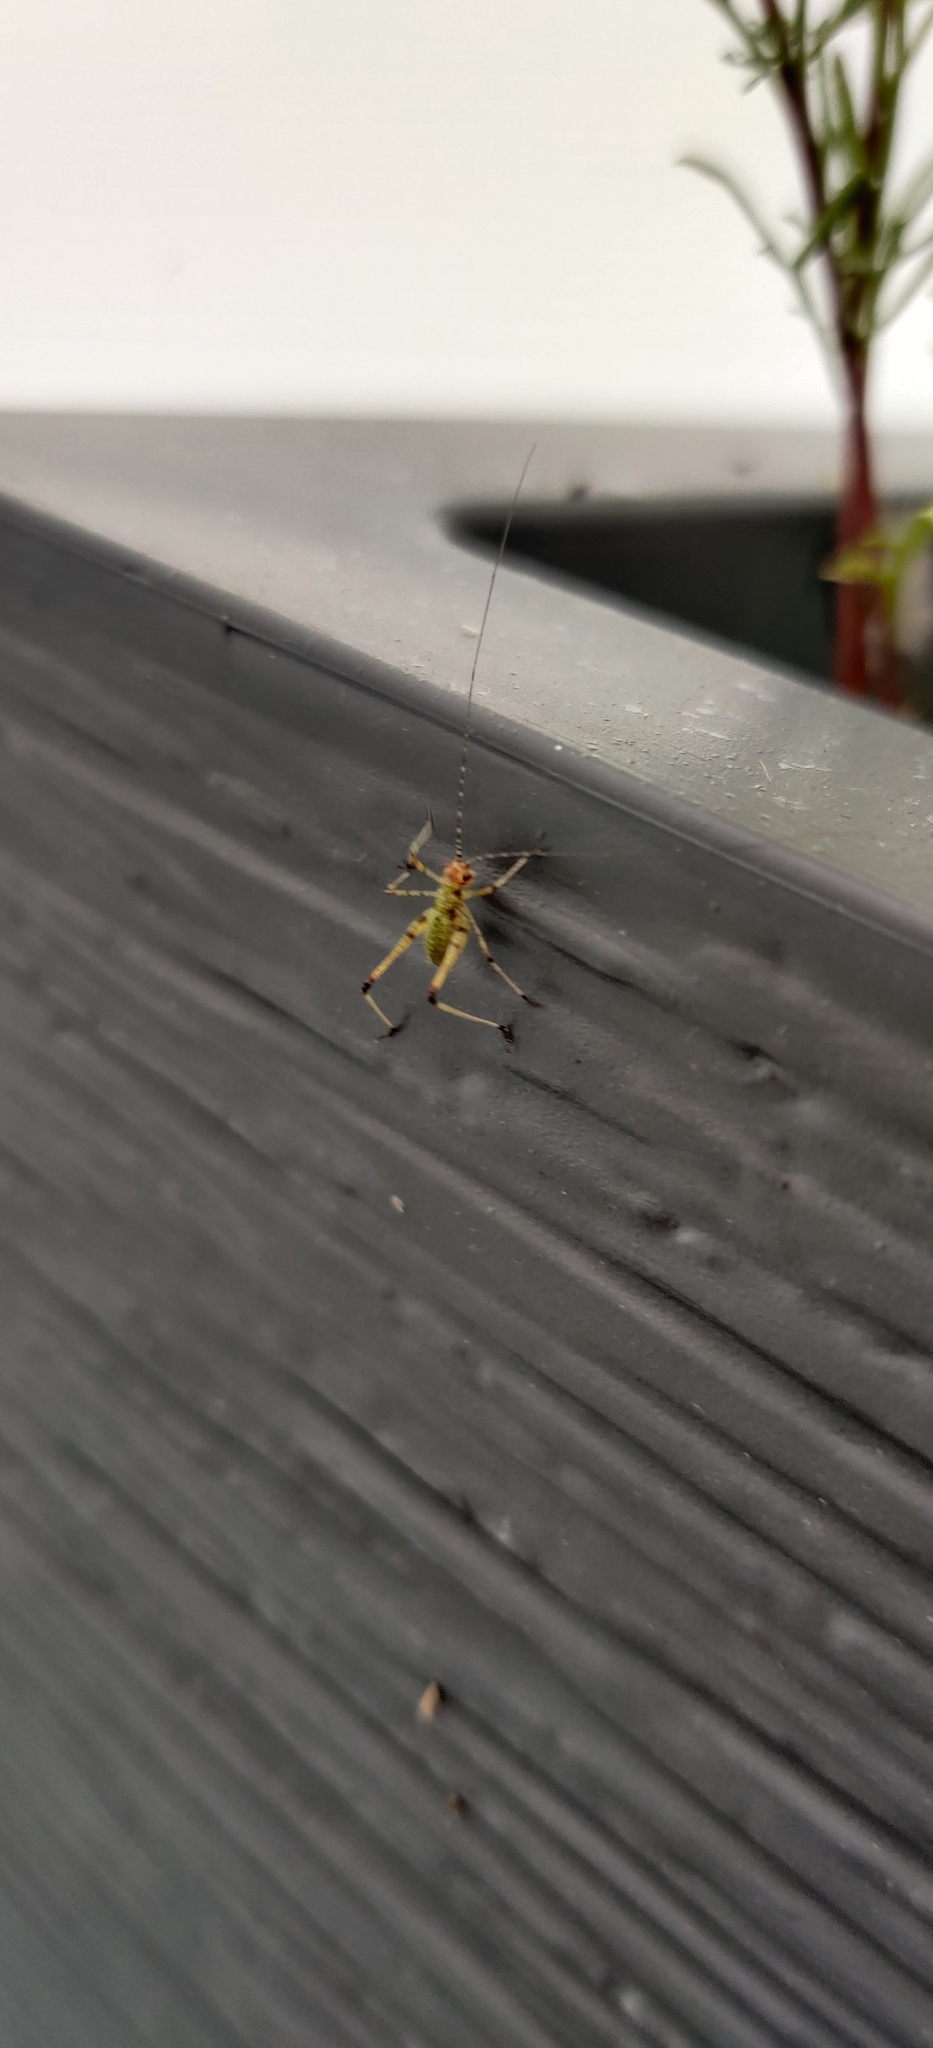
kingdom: Animalia
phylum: Arthropoda
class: Insecta
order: Orthoptera
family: Tettigoniidae
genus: Phaneroptera
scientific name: Phaneroptera nana
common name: Southern sickle bush-cricket
